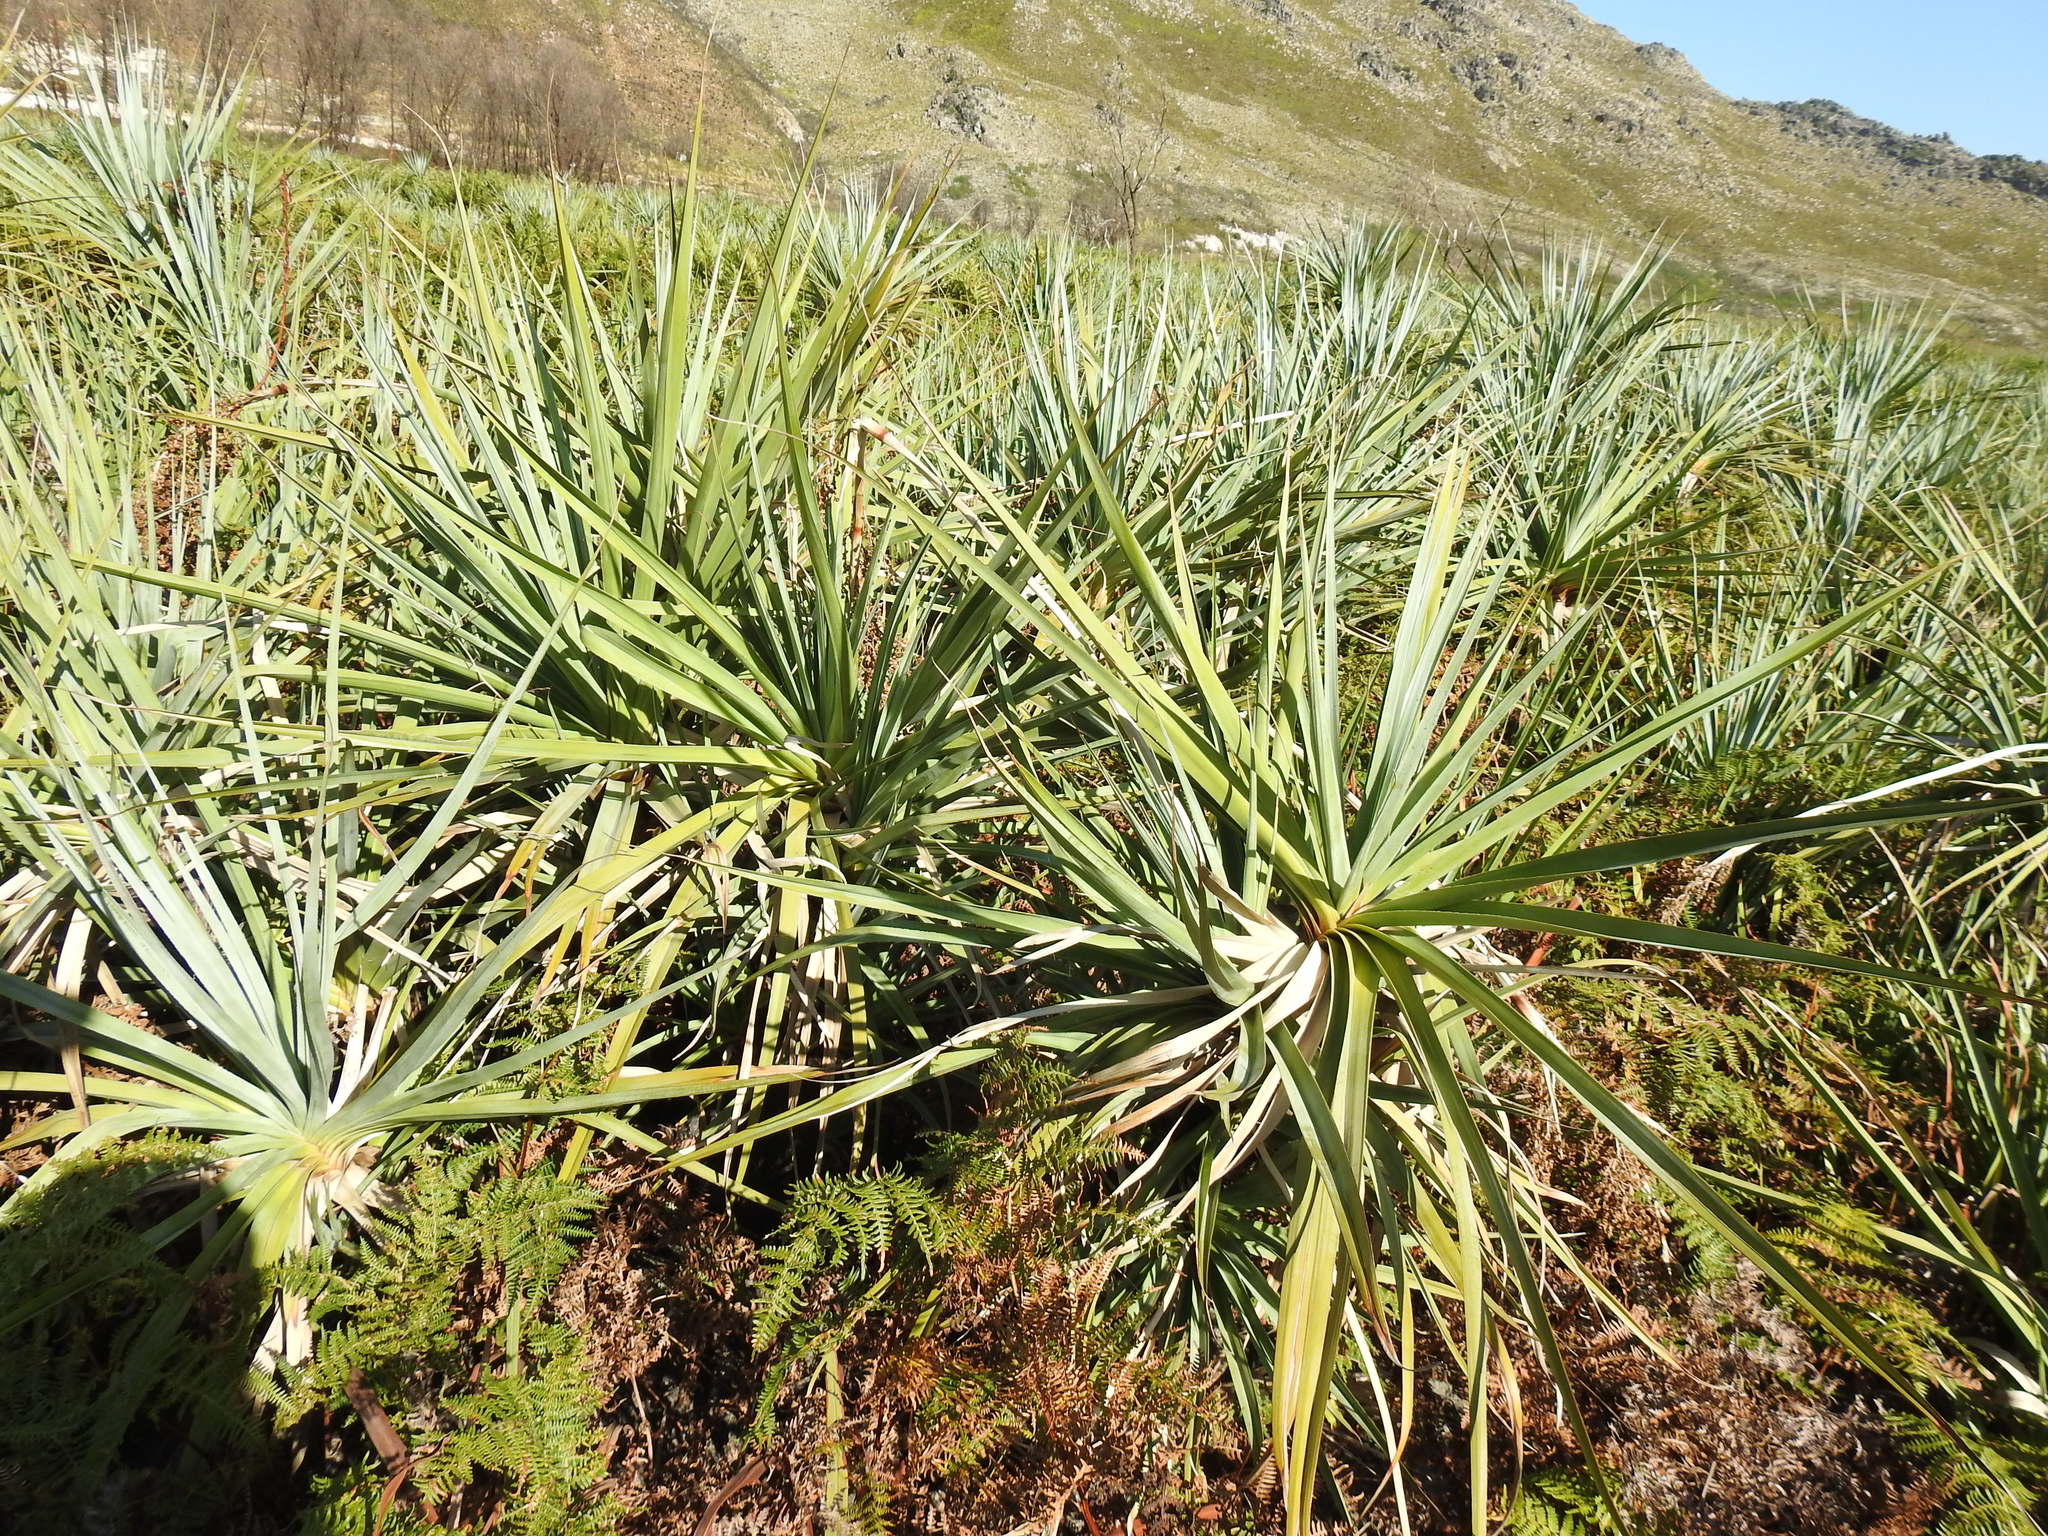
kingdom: Plantae
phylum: Tracheophyta
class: Liliopsida
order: Poales
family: Thurniaceae
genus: Prionium
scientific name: Prionium serratum
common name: Palmiet
